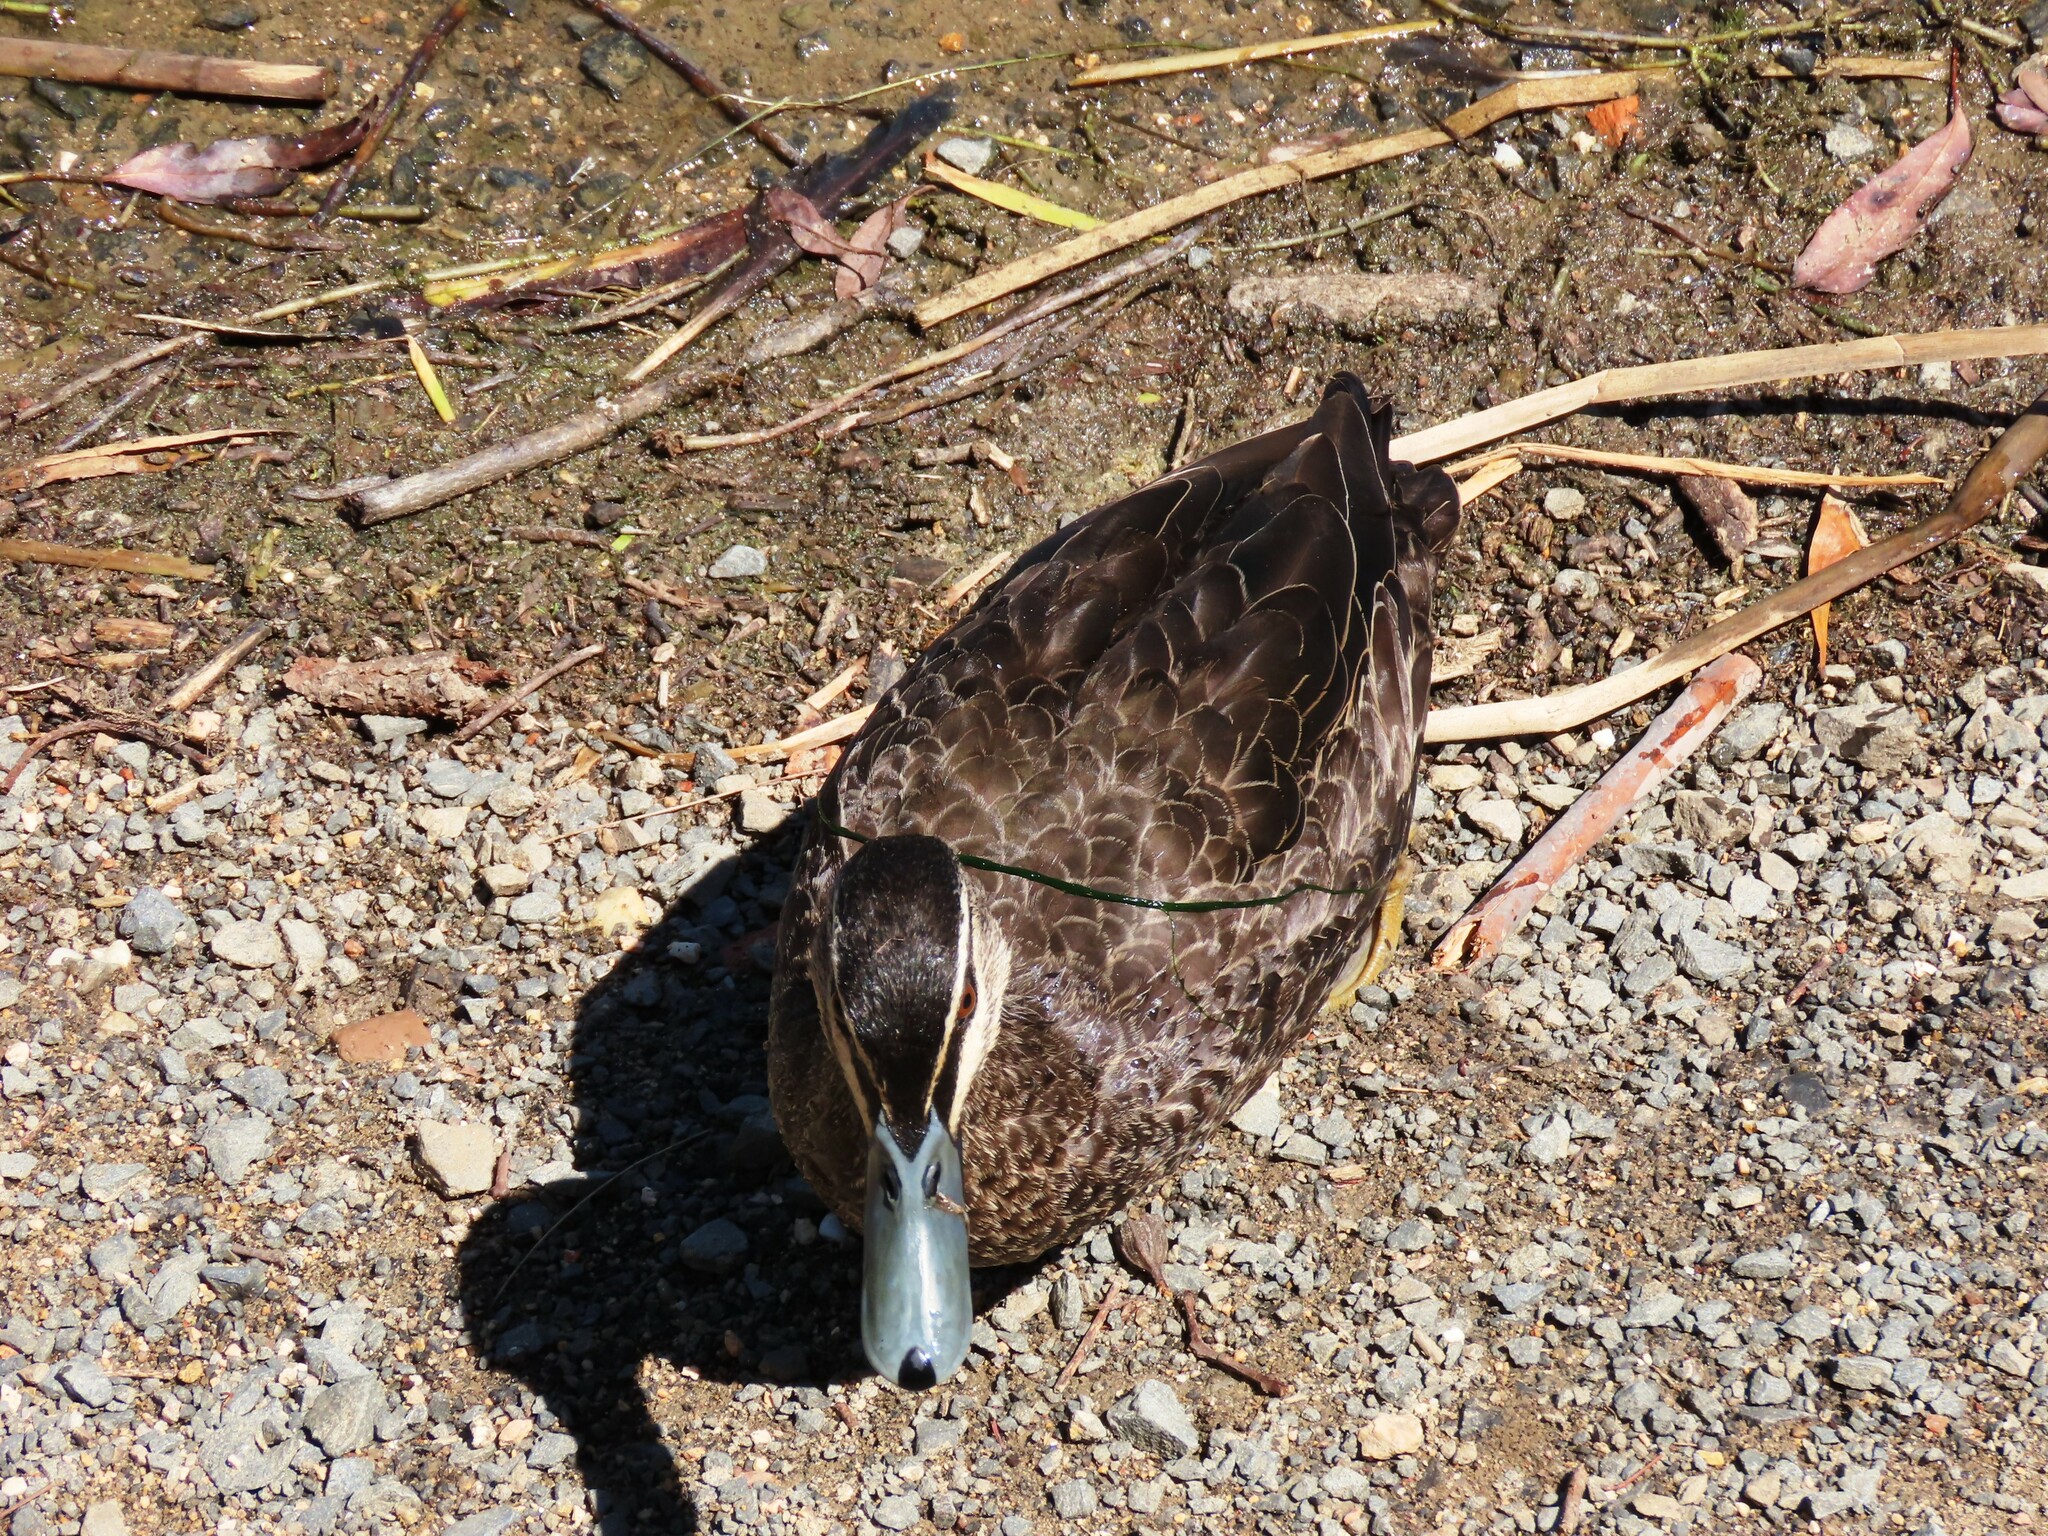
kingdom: Animalia
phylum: Chordata
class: Aves
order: Anseriformes
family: Anatidae
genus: Anas
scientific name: Anas superciliosa
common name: Pacific black duck
